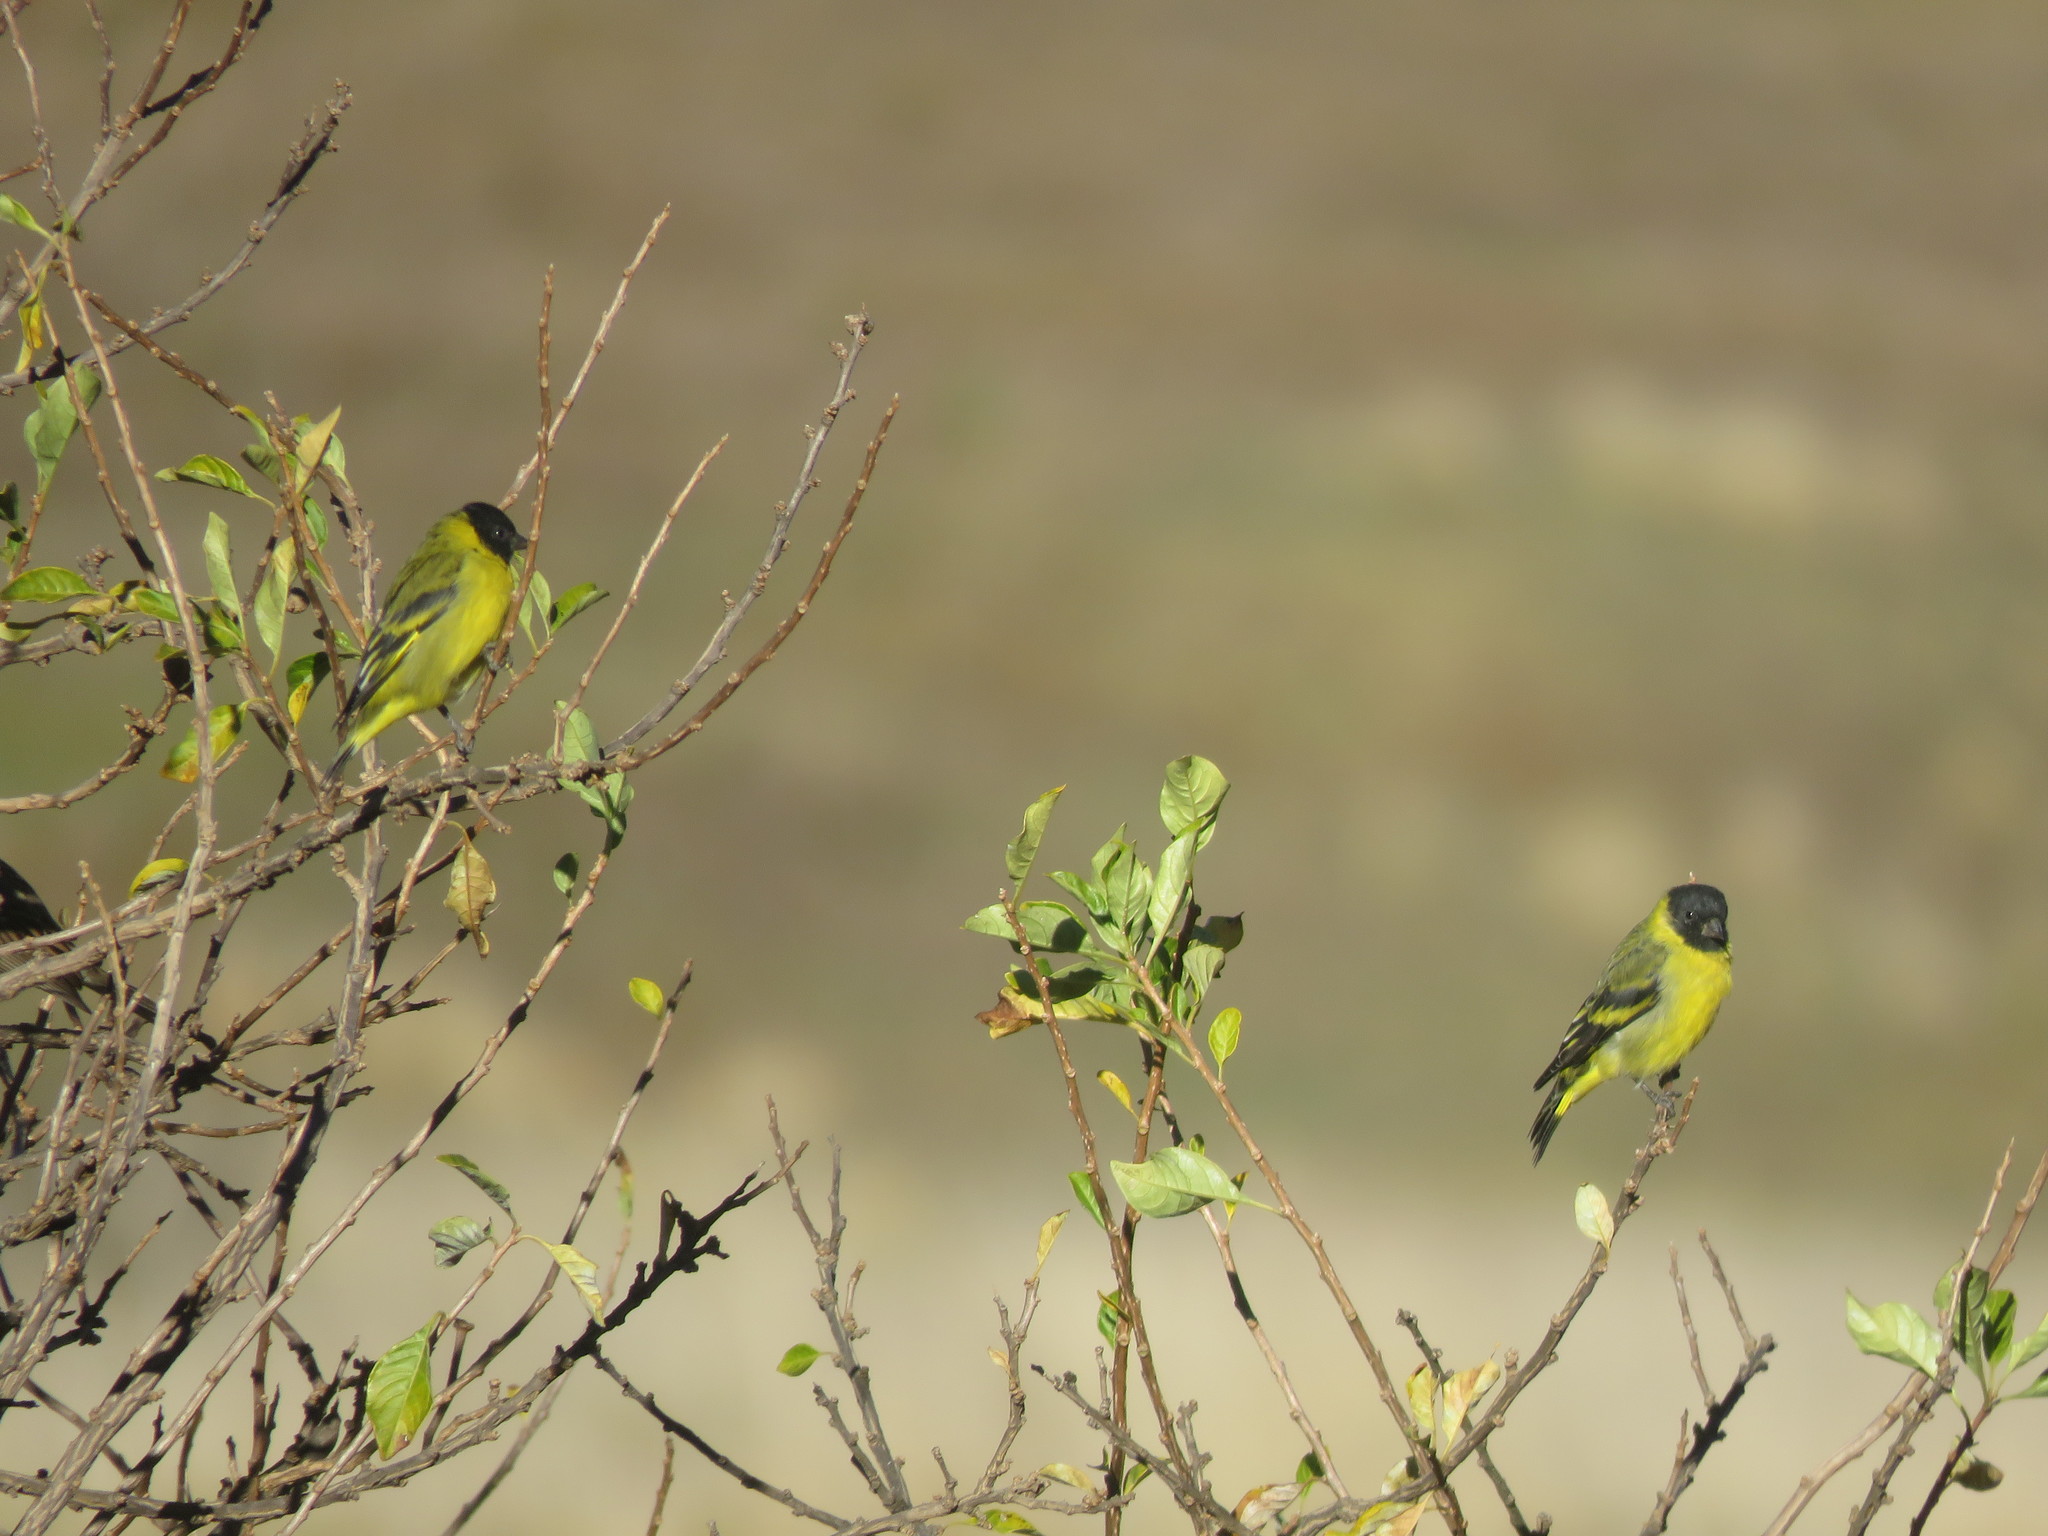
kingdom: Animalia
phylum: Chordata
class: Aves
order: Passeriformes
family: Fringillidae
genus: Spinus
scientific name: Spinus magellanicus
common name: Hooded siskin
